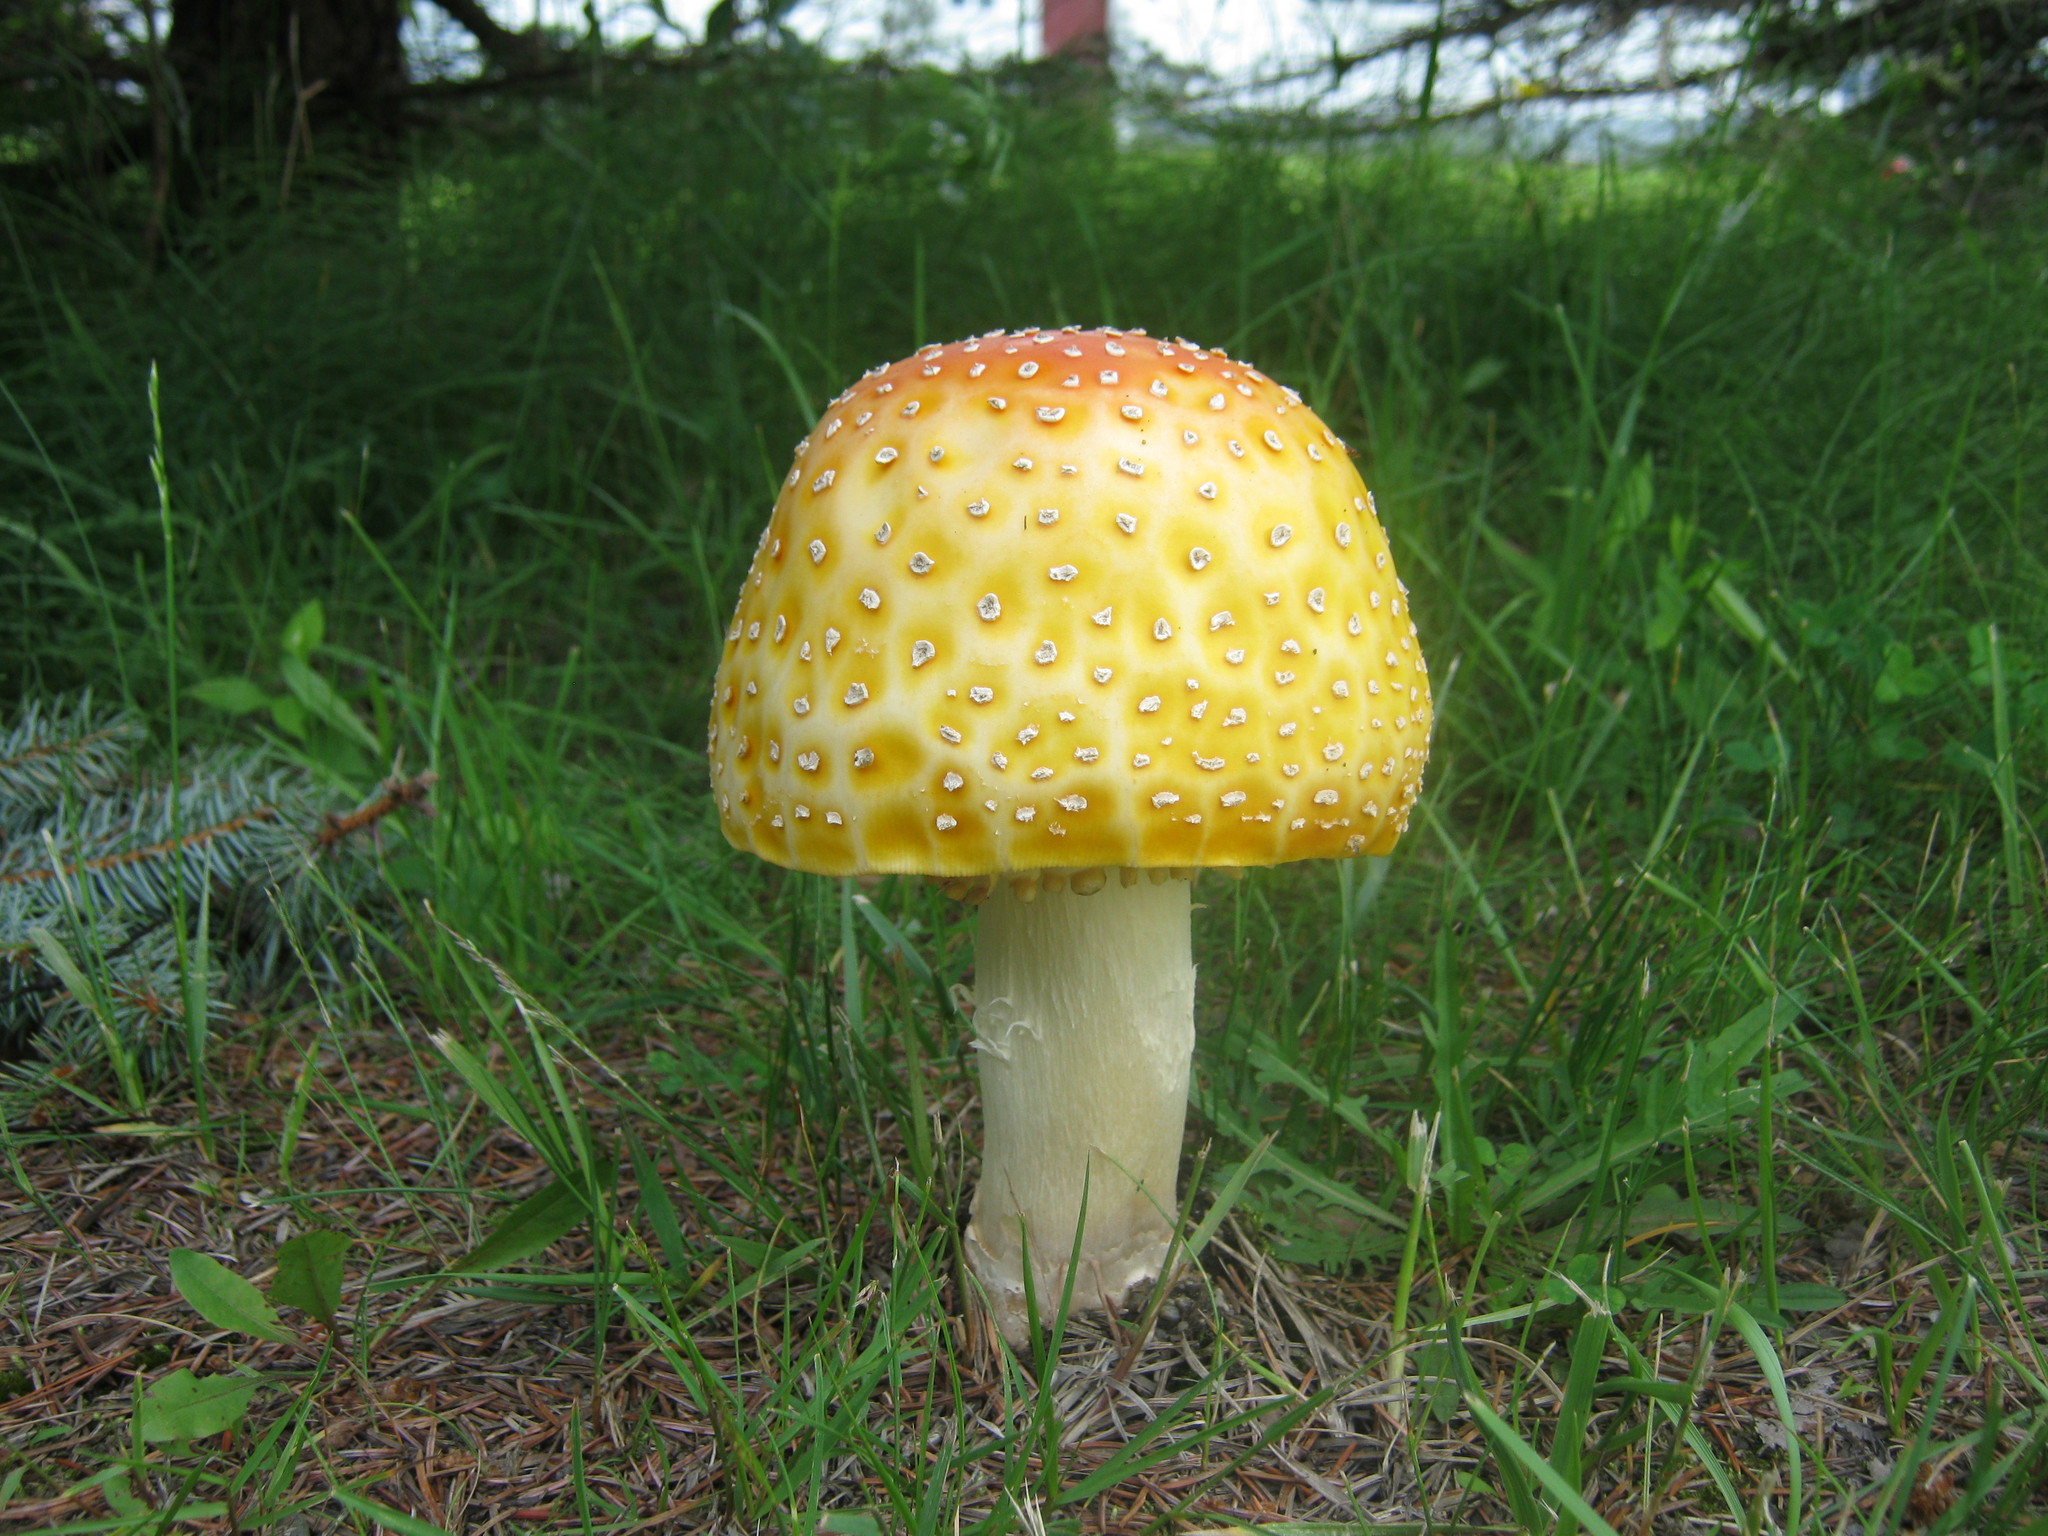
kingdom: Fungi
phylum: Basidiomycota
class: Agaricomycetes
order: Agaricales
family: Amanitaceae
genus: Amanita
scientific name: Amanita muscaria
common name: Fly agaric
